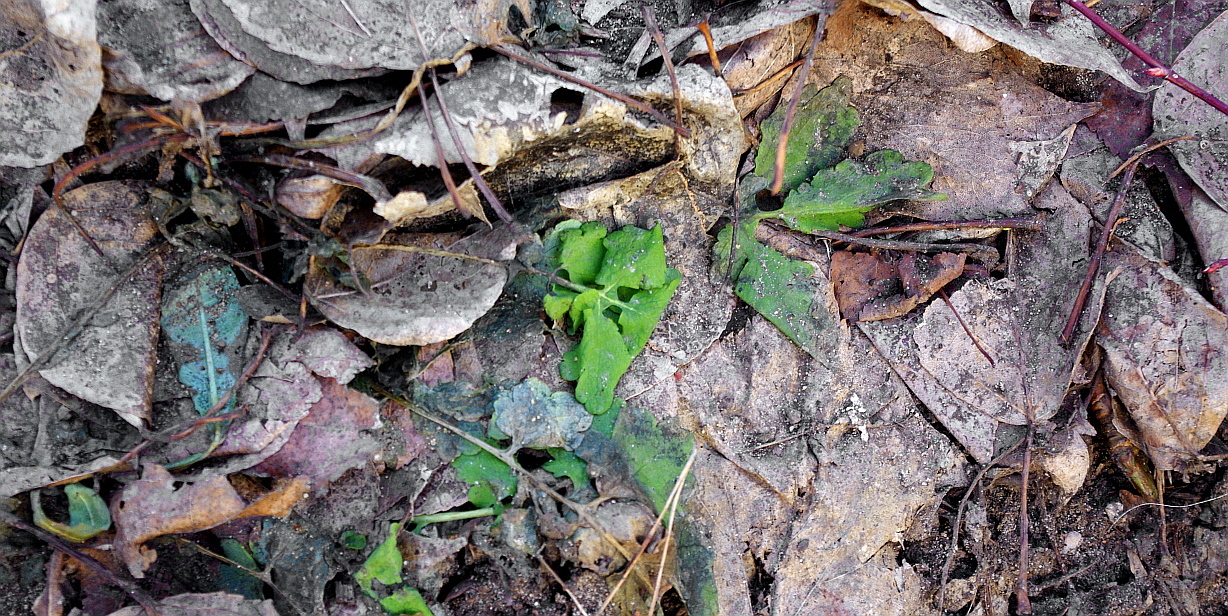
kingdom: Plantae
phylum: Tracheophyta
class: Magnoliopsida
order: Ranunculales
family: Papaveraceae
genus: Chelidonium
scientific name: Chelidonium majus
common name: Greater celandine
